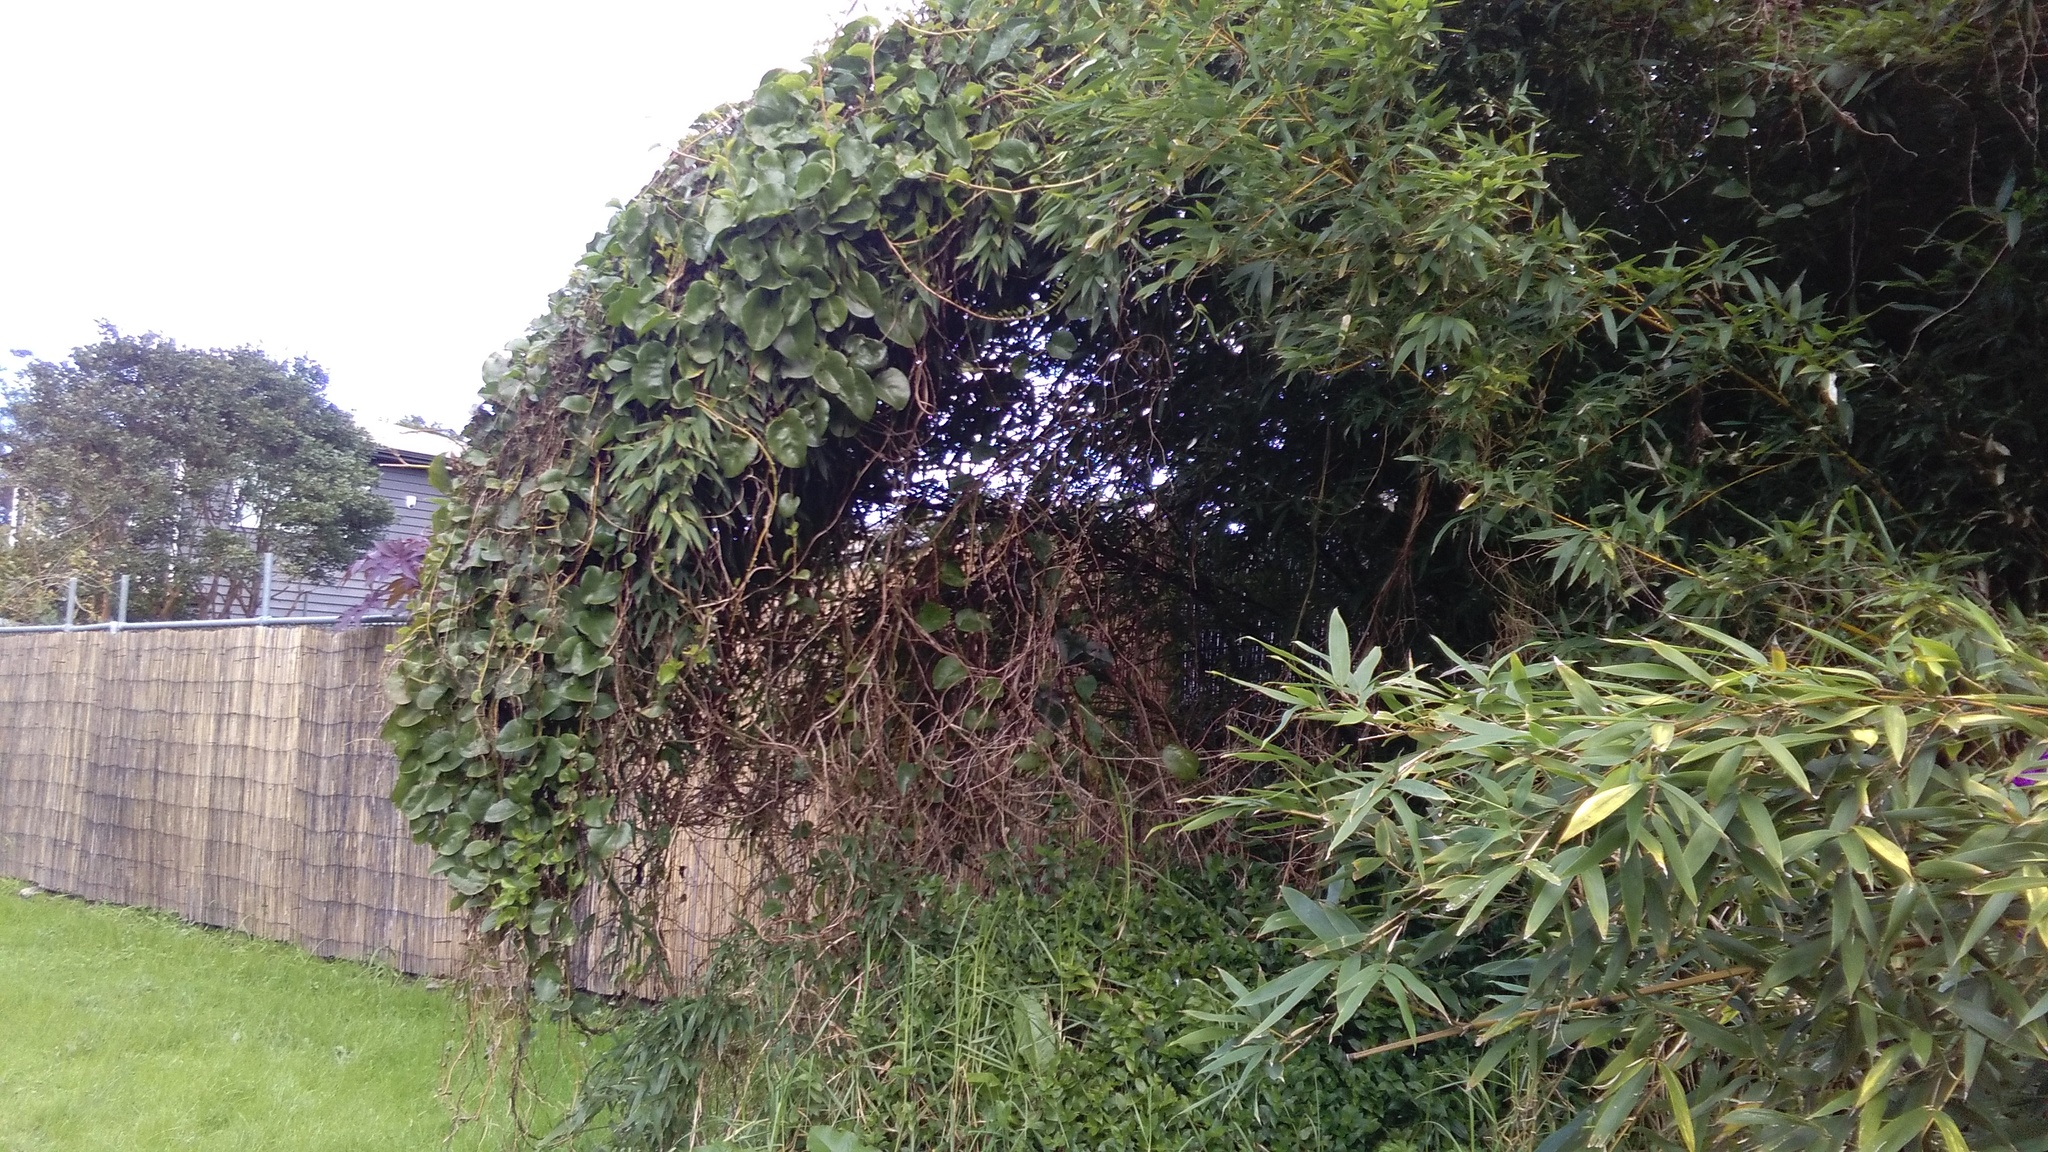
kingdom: Plantae
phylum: Tracheophyta
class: Magnoliopsida
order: Caryophyllales
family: Basellaceae
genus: Anredera
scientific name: Anredera cordifolia
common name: Heartleaf madeiravine
